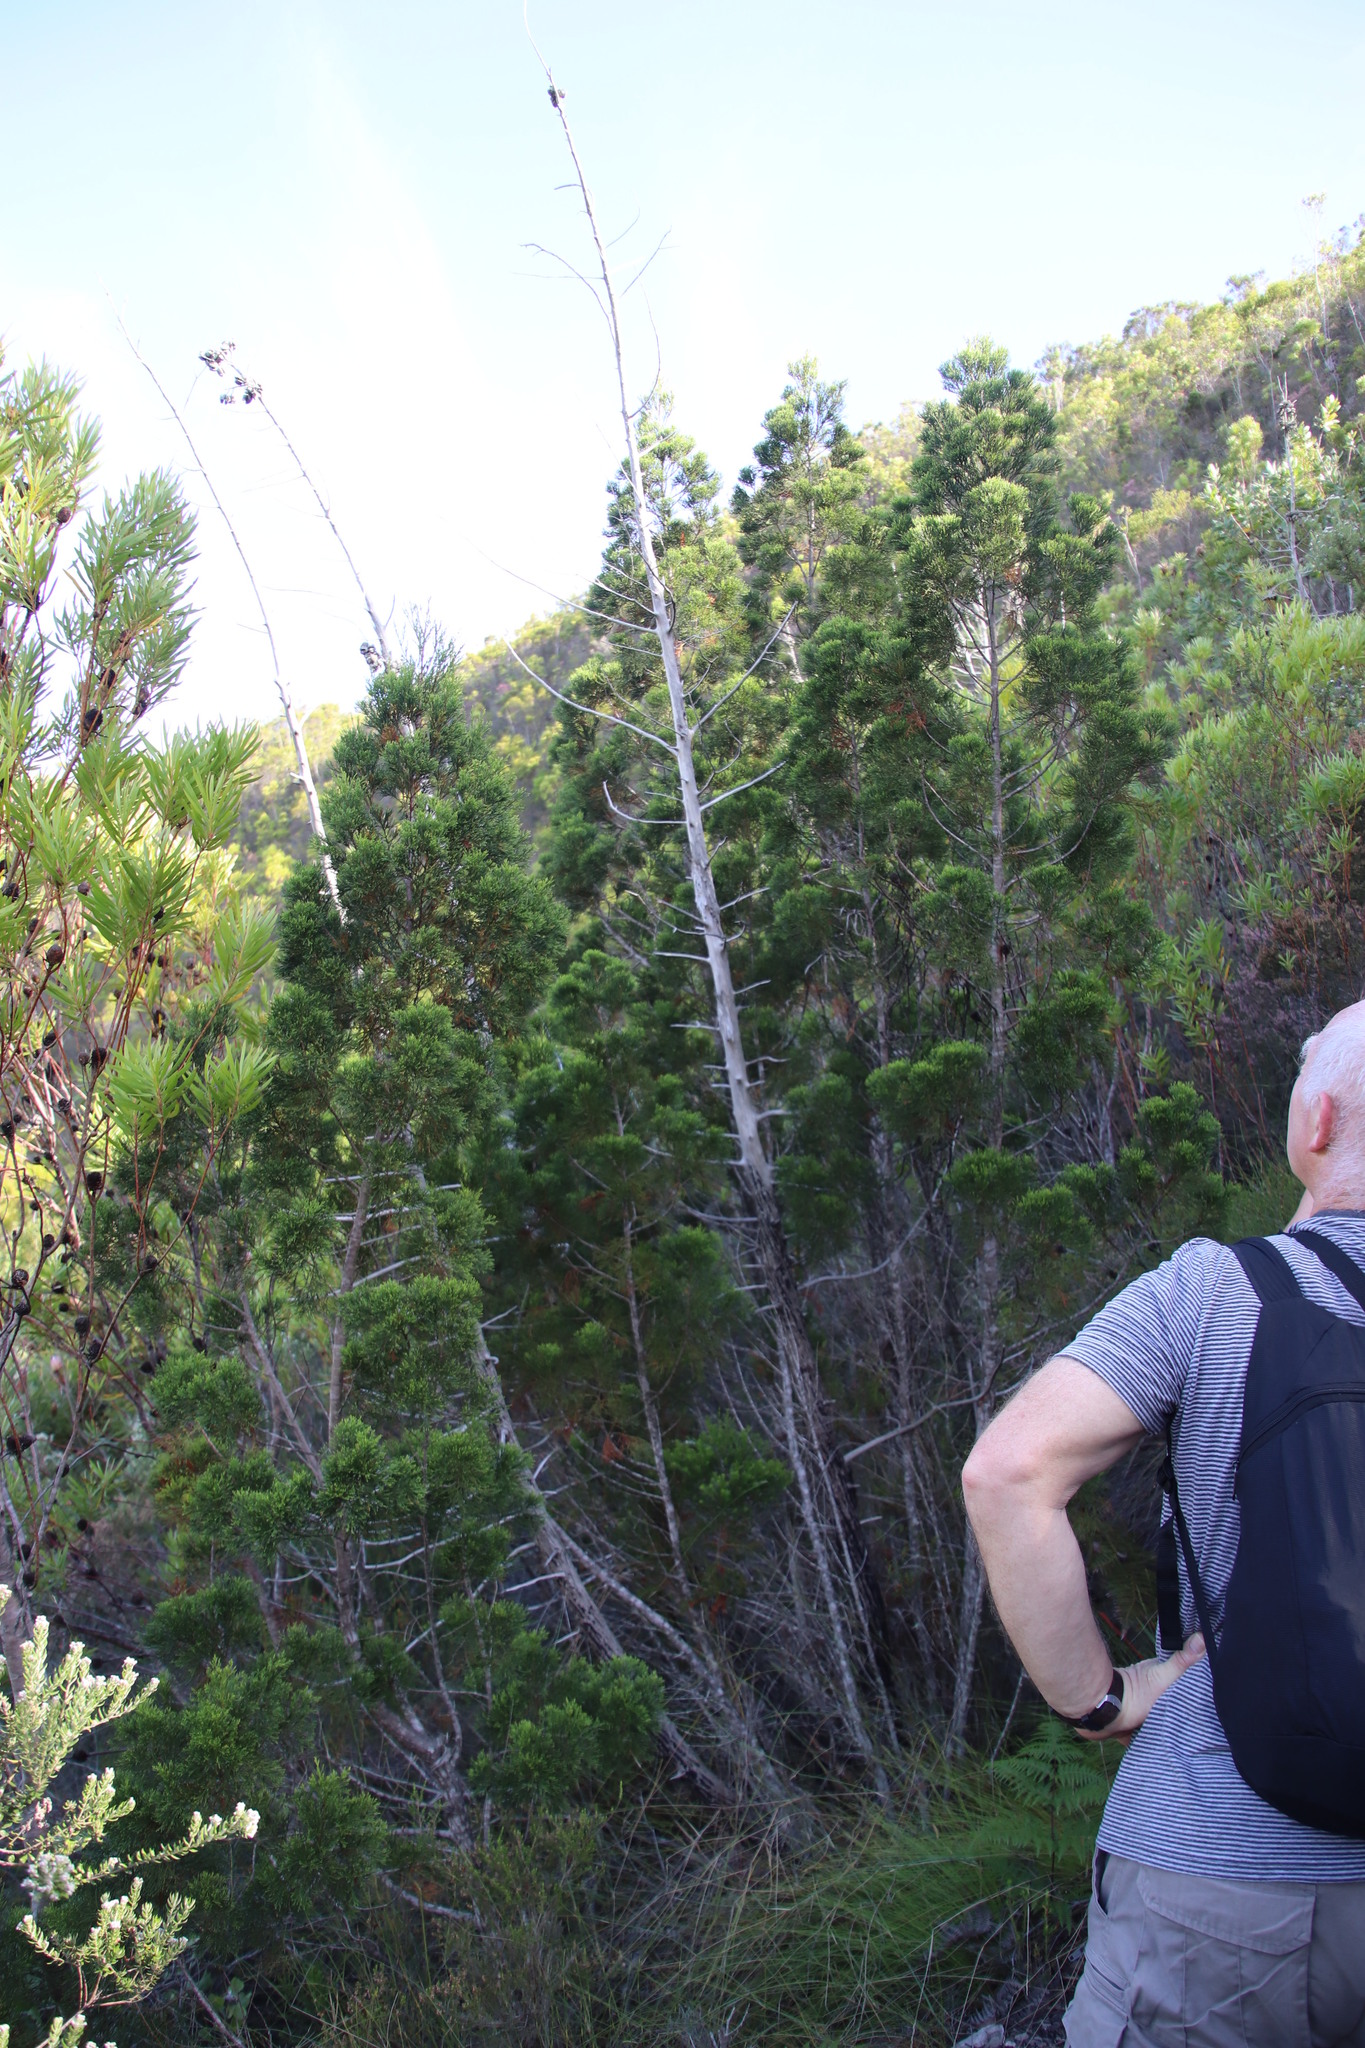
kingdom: Plantae
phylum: Tracheophyta
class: Pinopsida
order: Pinales
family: Cupressaceae
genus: Widdringtonia
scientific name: Widdringtonia nodiflora
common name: Cape cypress
